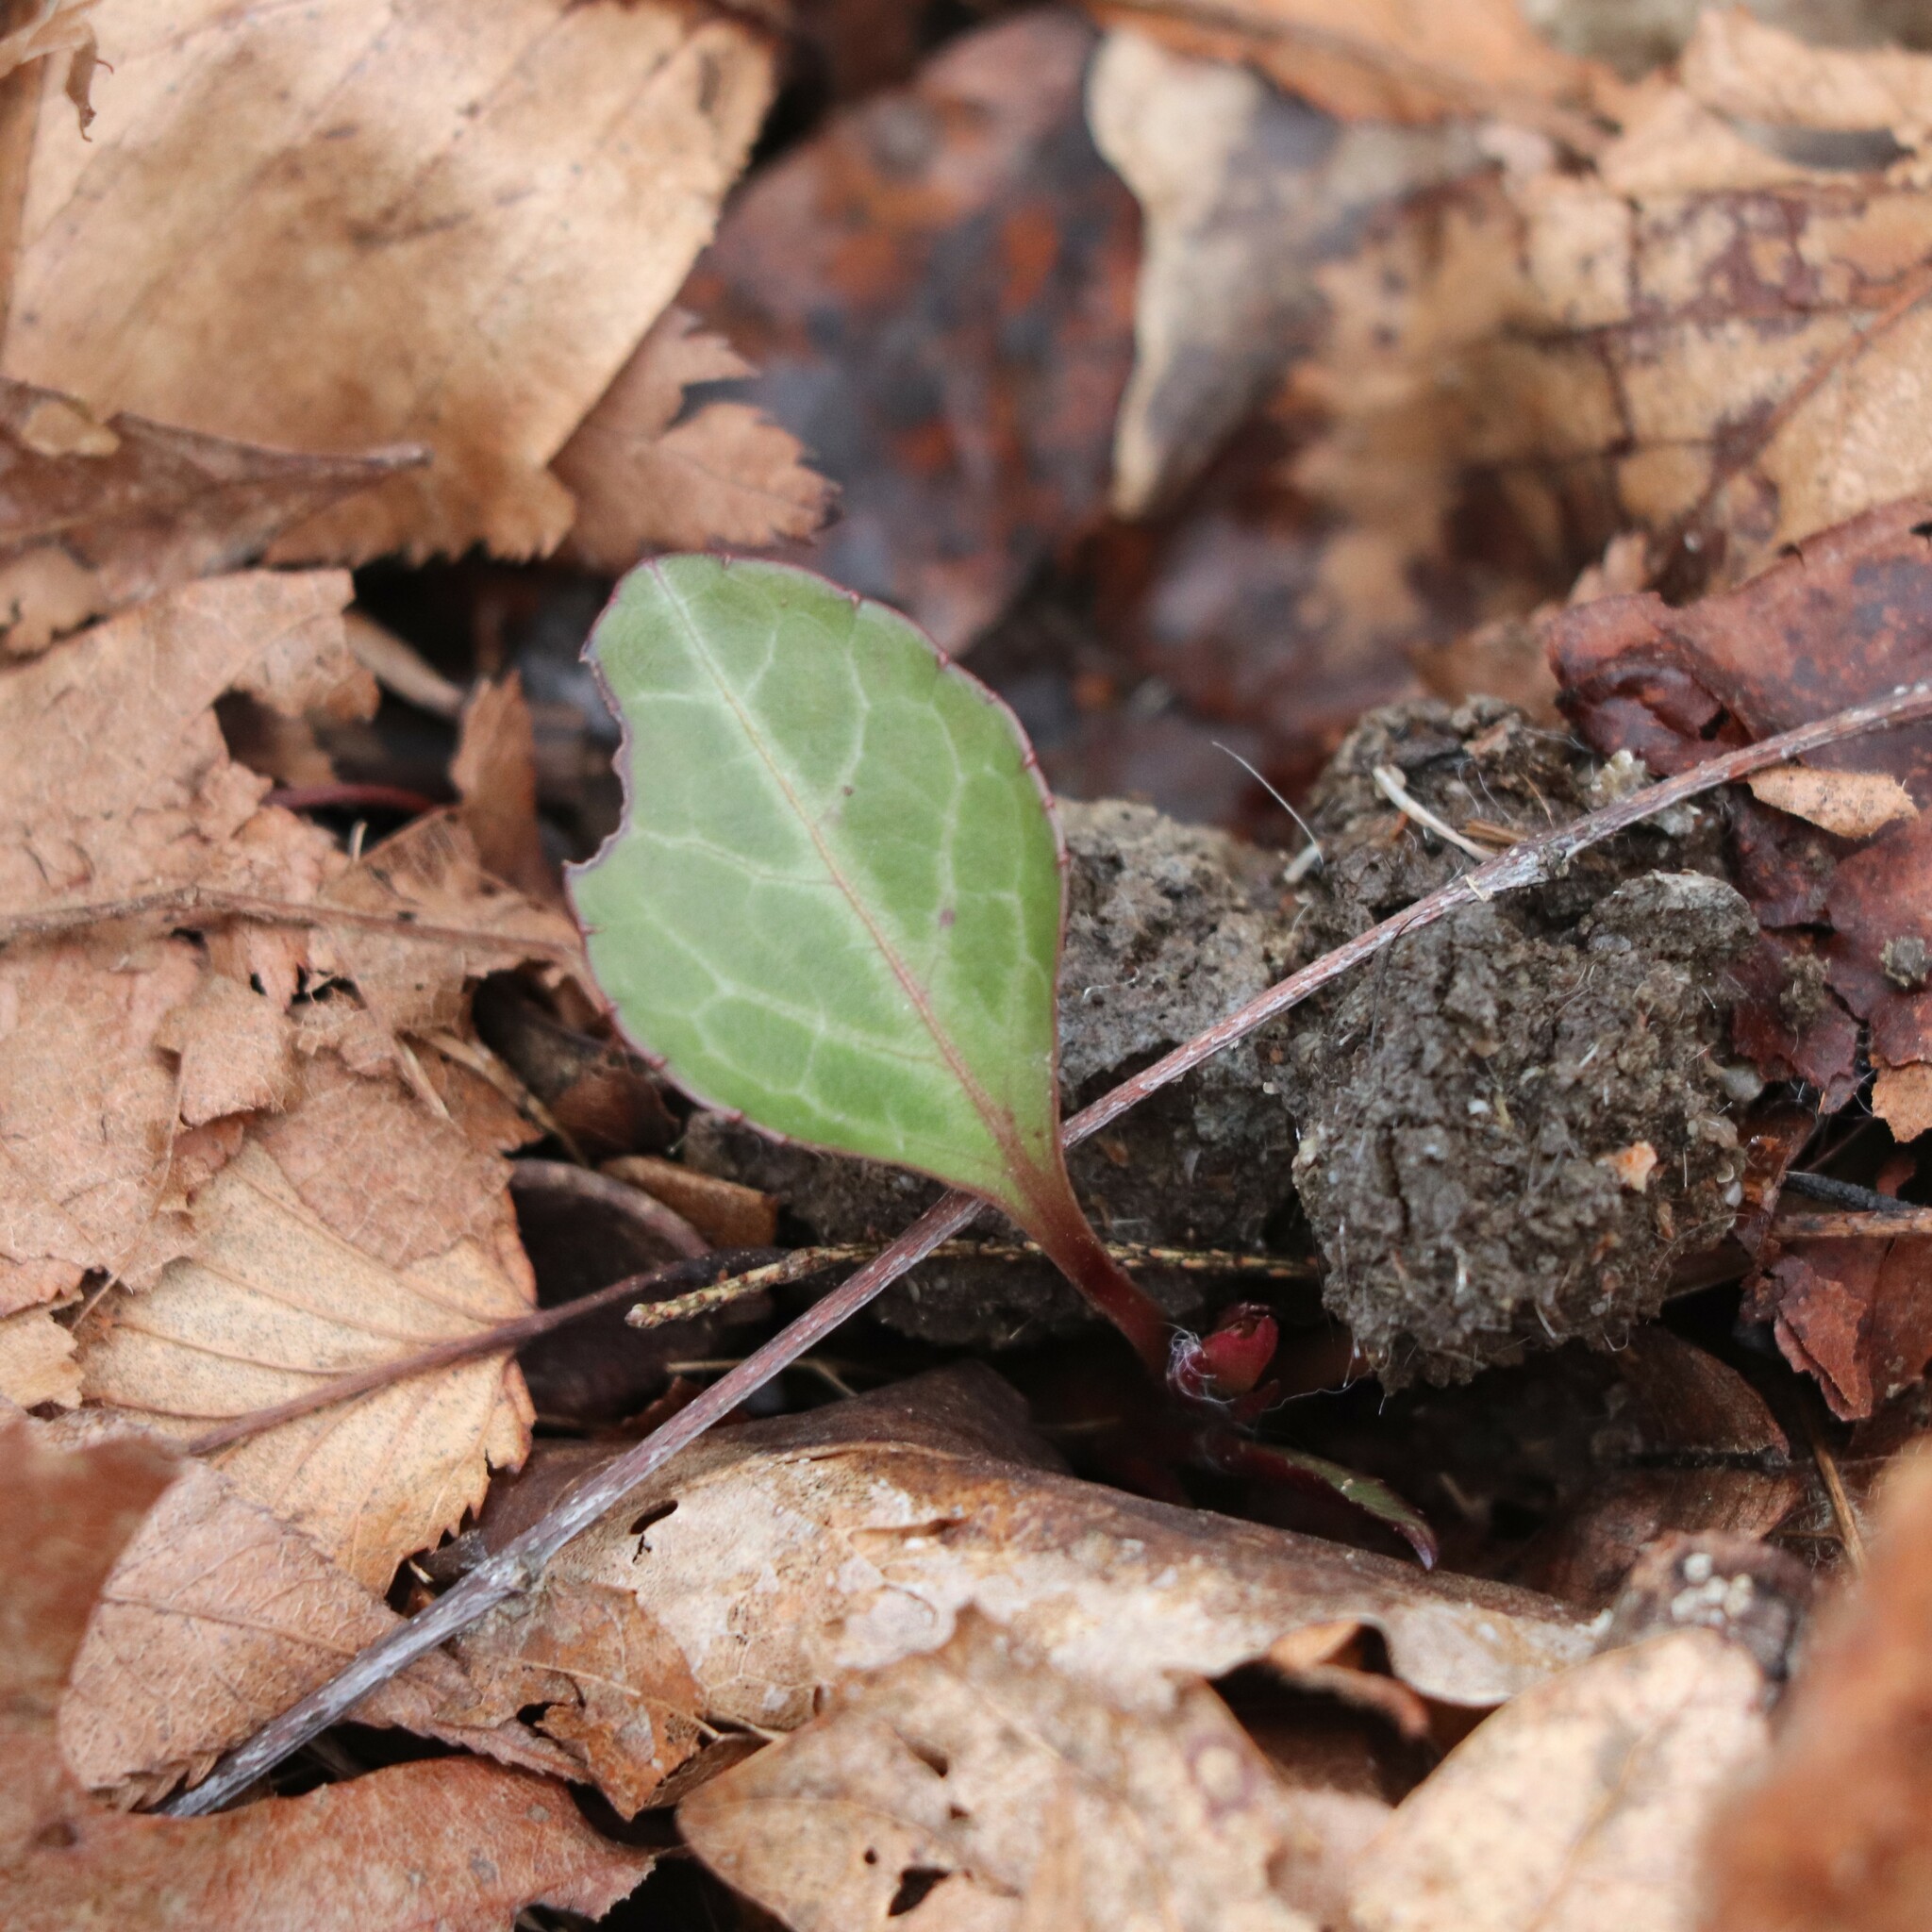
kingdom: Plantae
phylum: Tracheophyta
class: Magnoliopsida
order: Ericales
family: Ericaceae
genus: Pyrola
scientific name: Pyrola americana
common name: American wintergreen
